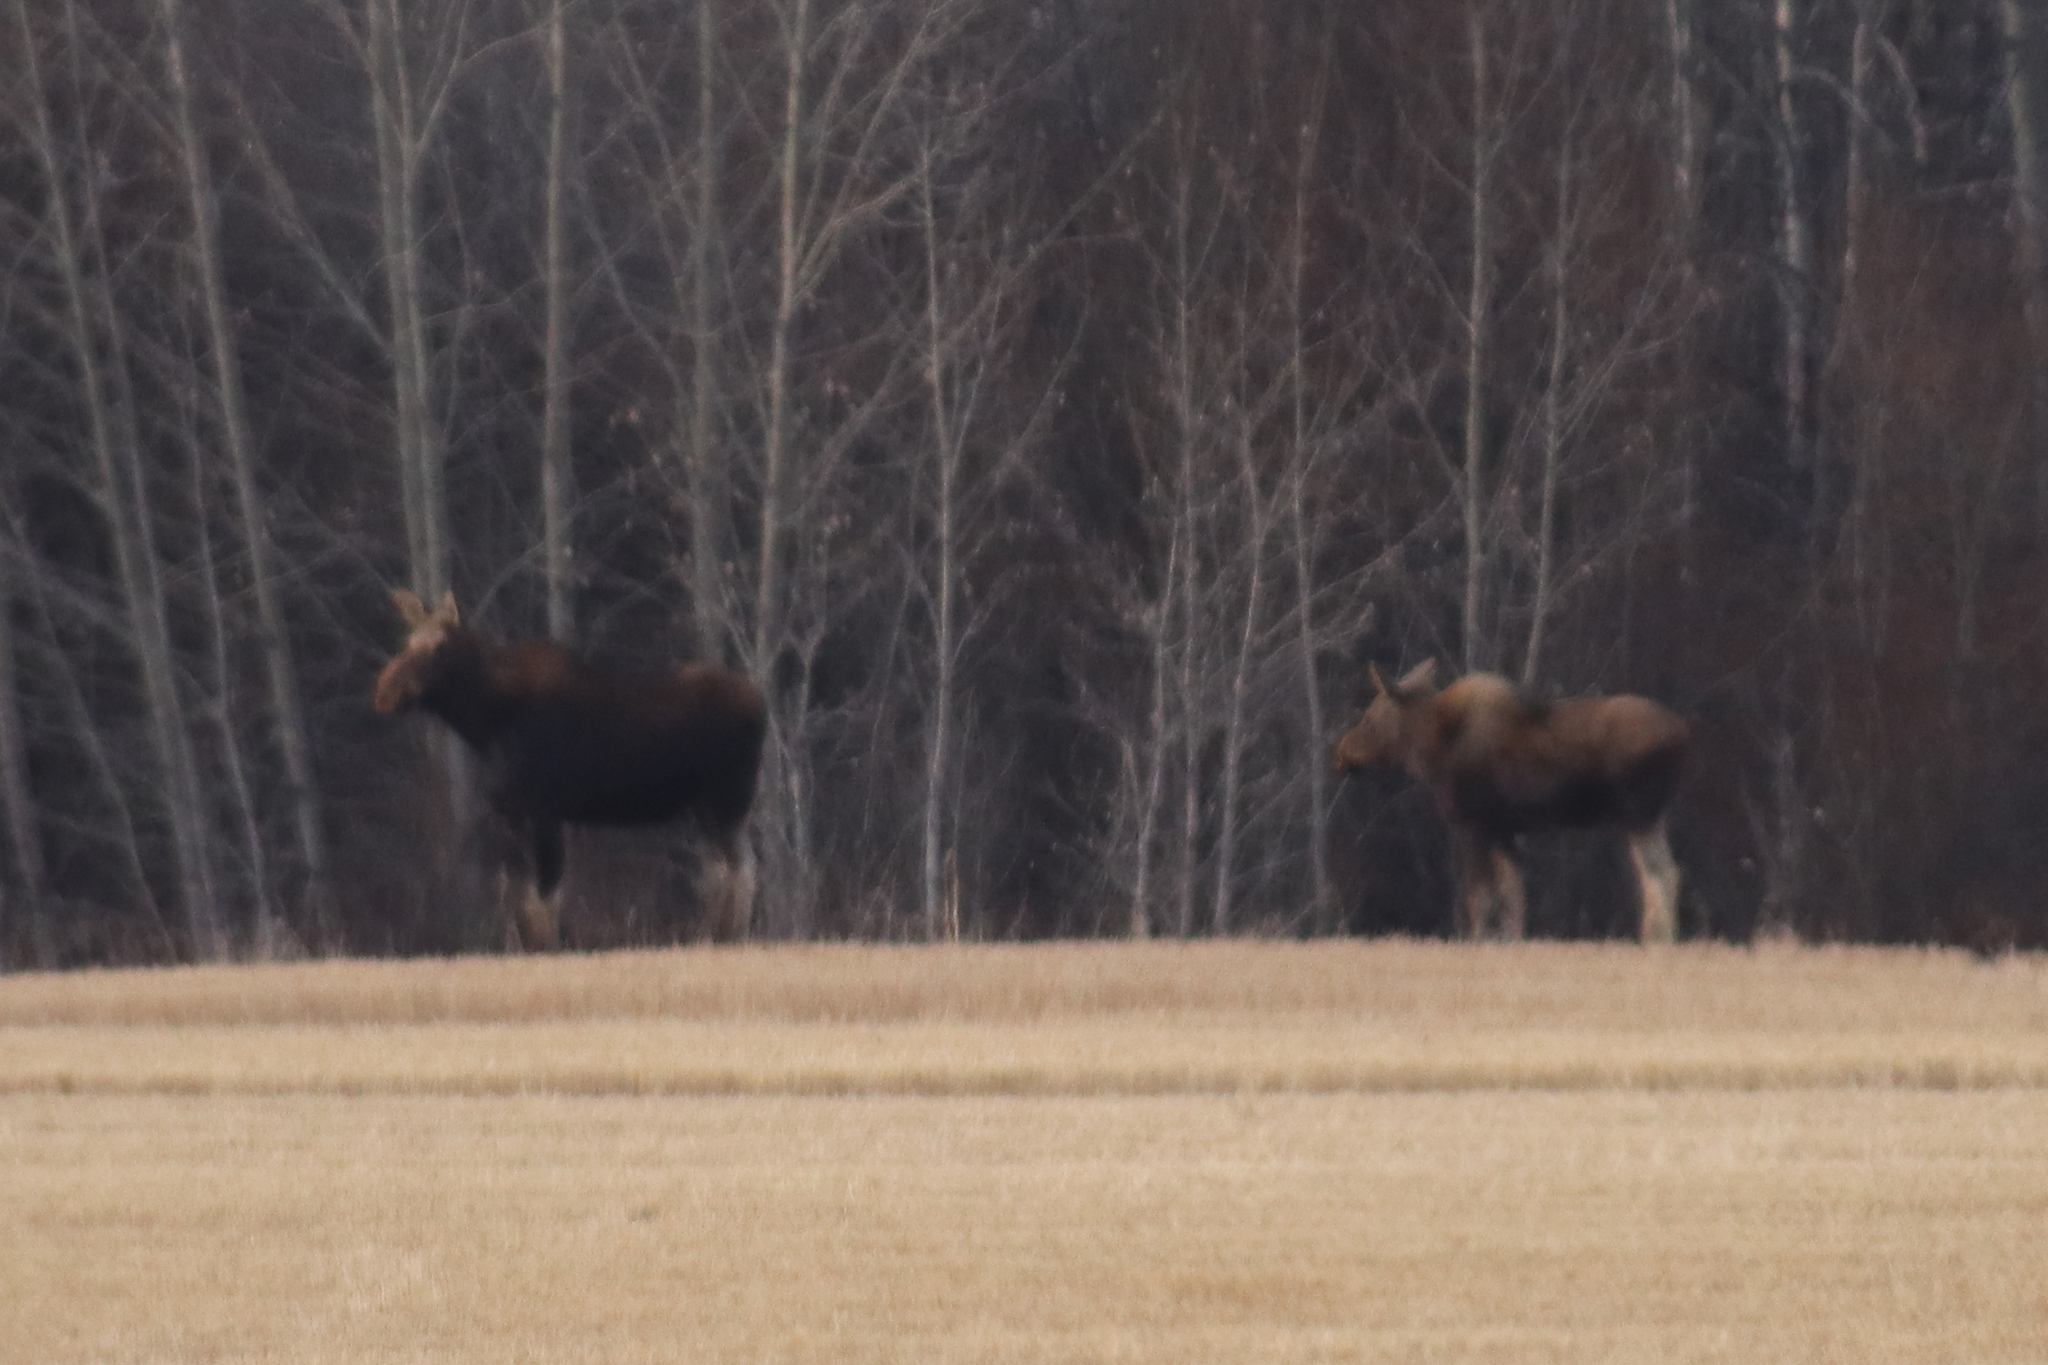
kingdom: Animalia
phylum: Chordata
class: Mammalia
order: Artiodactyla
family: Cervidae
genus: Alces
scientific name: Alces alces
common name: Moose
